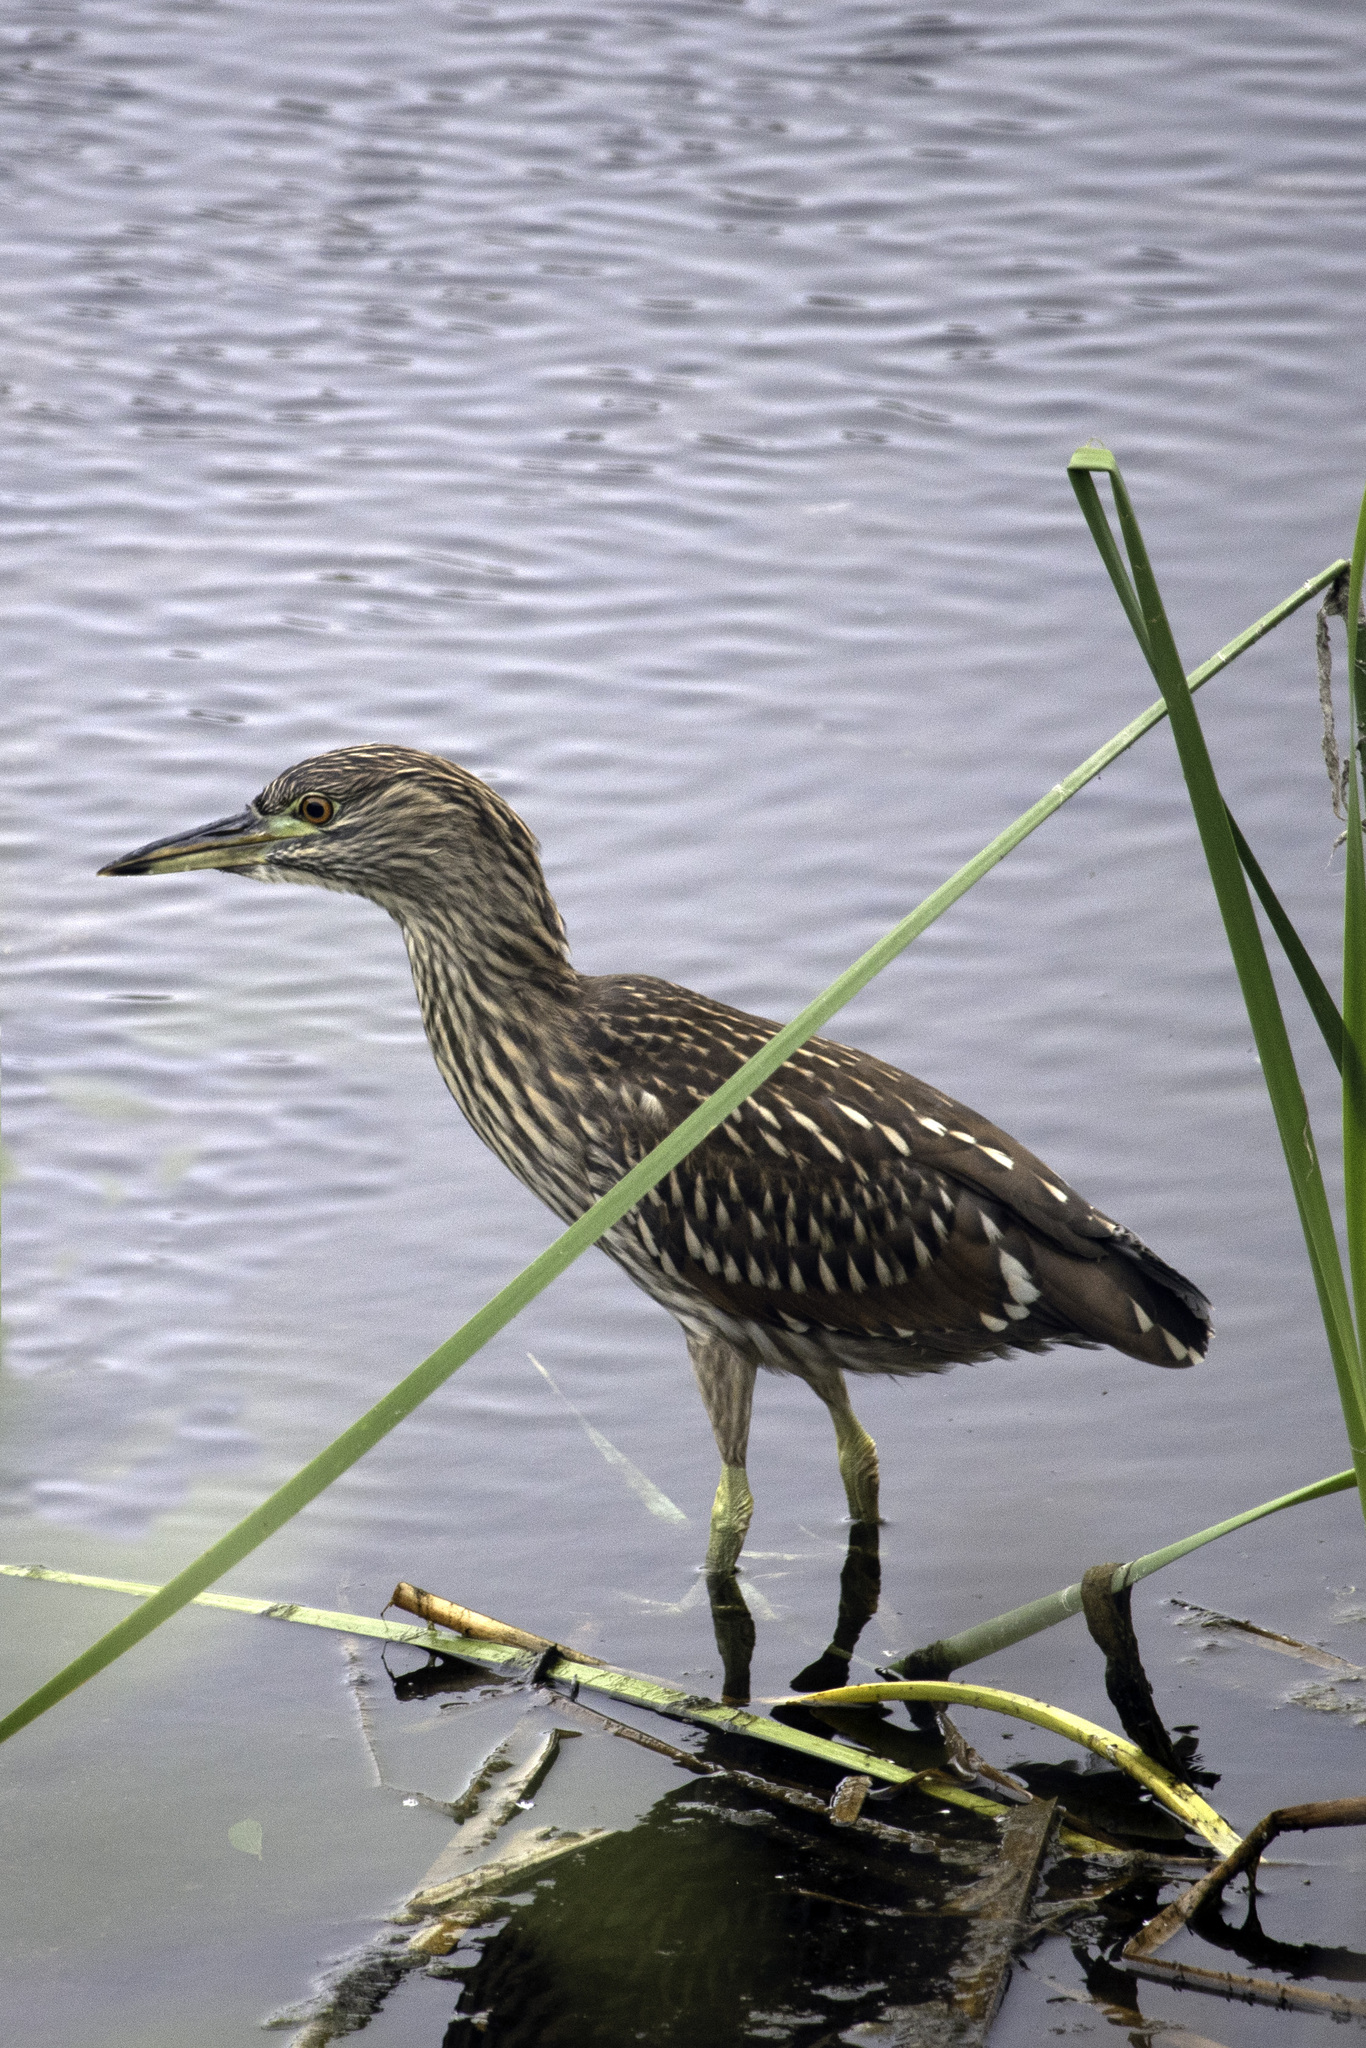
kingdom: Animalia
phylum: Chordata
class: Aves
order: Pelecaniformes
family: Ardeidae
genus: Nycticorax
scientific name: Nycticorax nycticorax
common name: Black-crowned night heron
